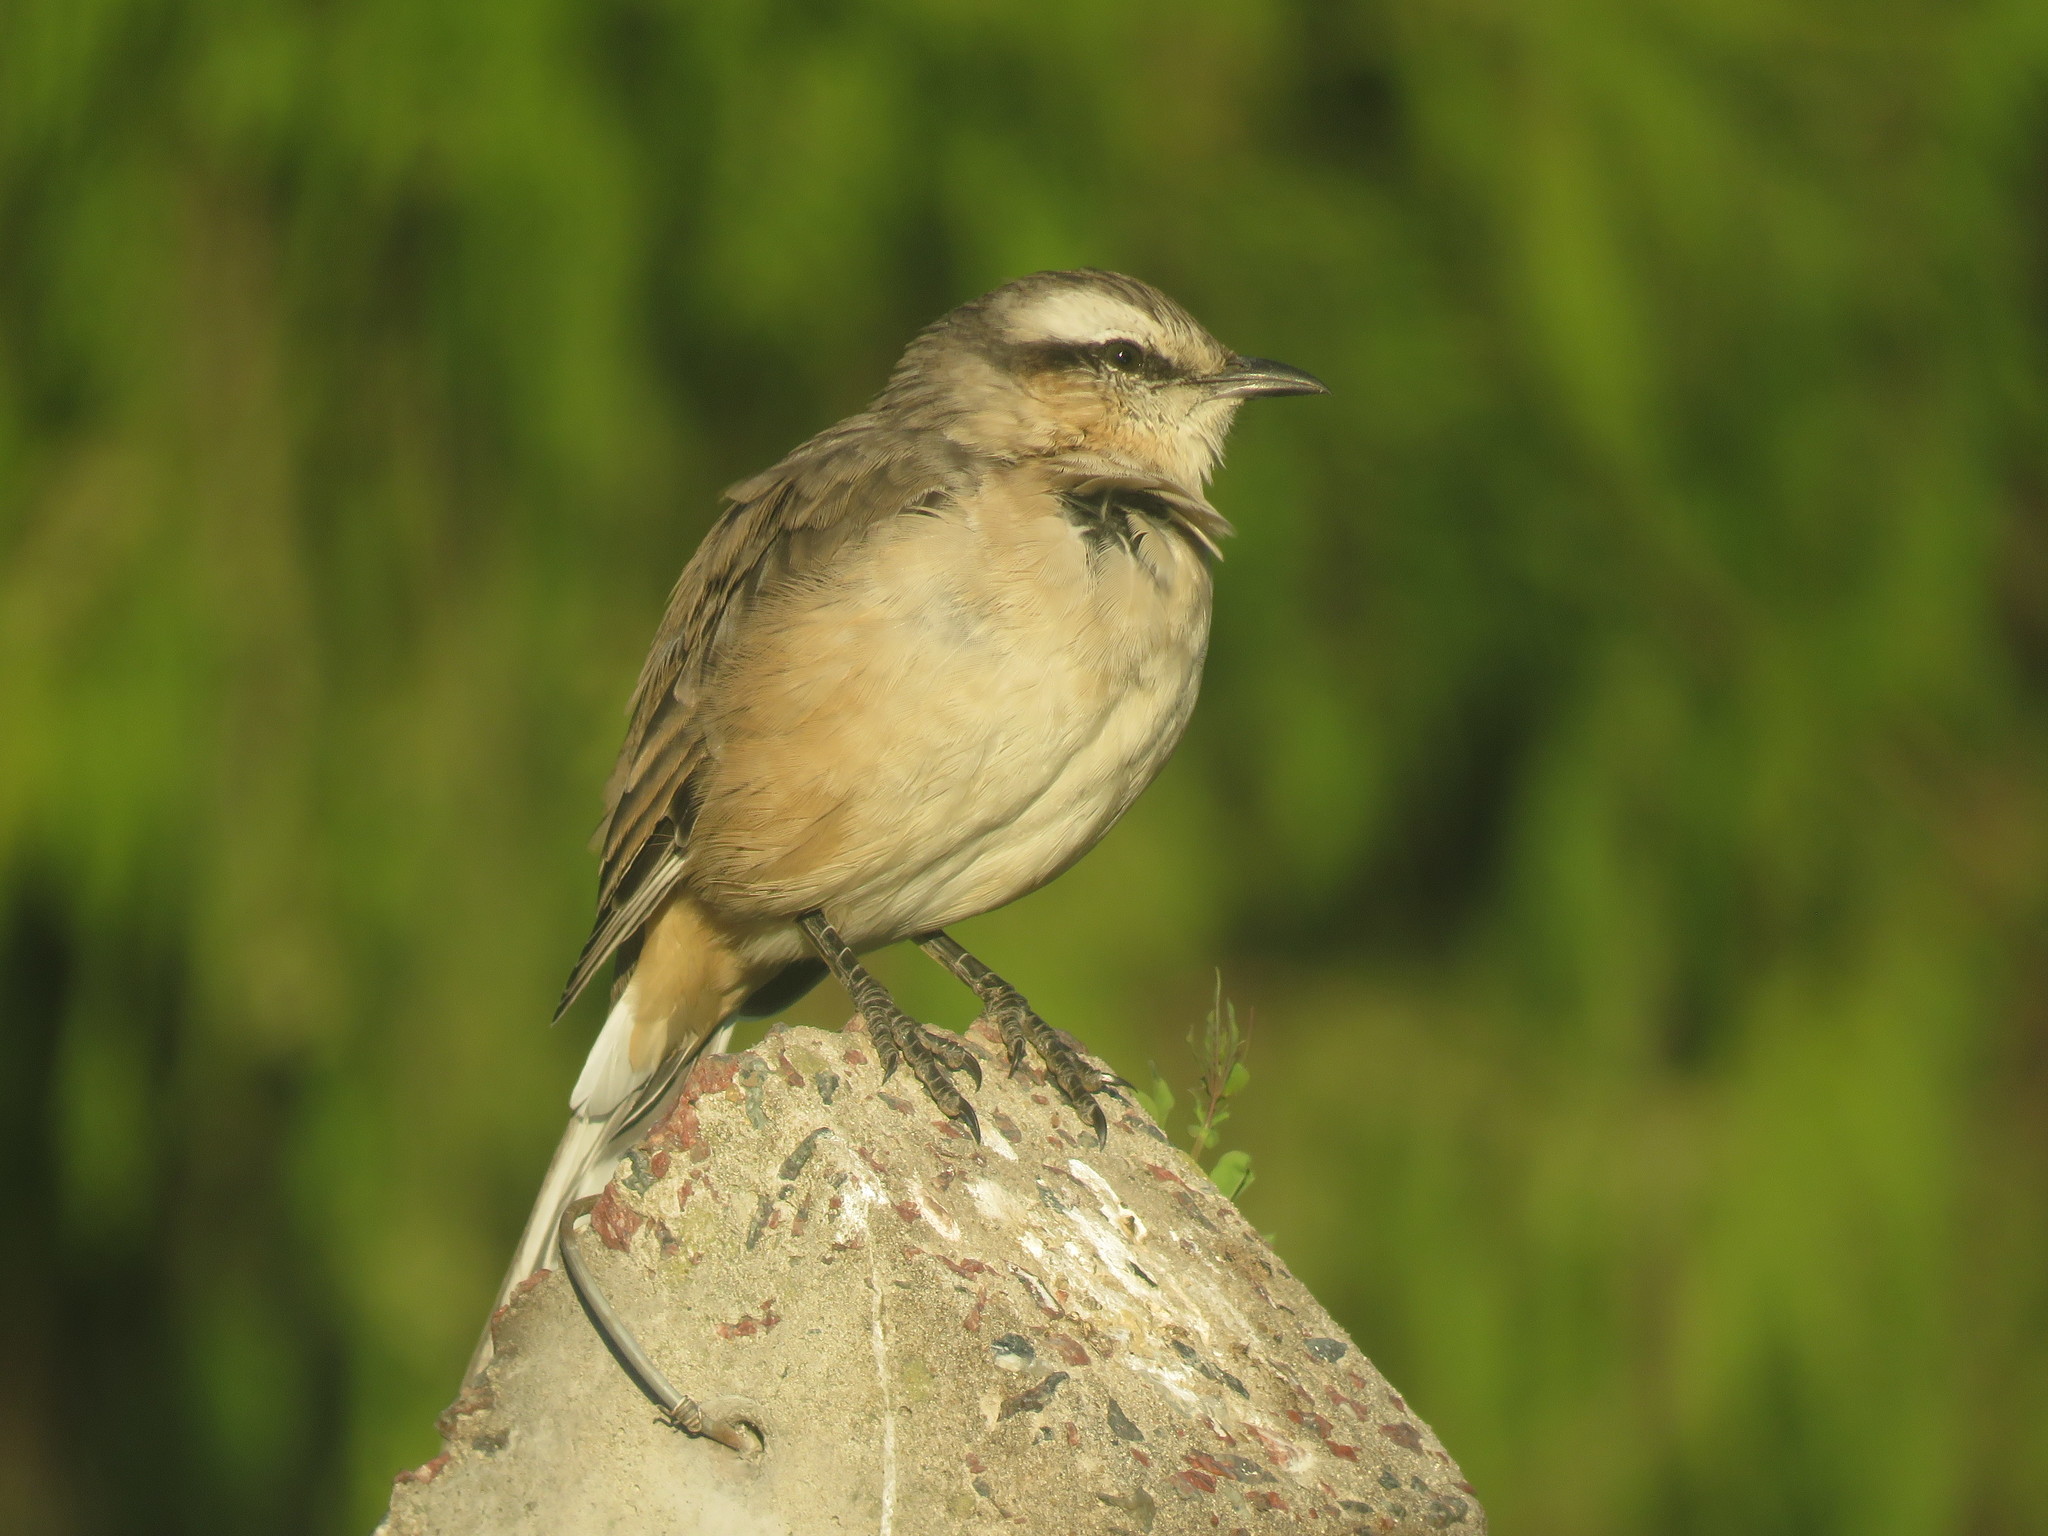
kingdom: Animalia
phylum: Chordata
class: Aves
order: Passeriformes
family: Mimidae
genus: Mimus
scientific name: Mimus saturninus
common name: Chalk-browed mockingbird
